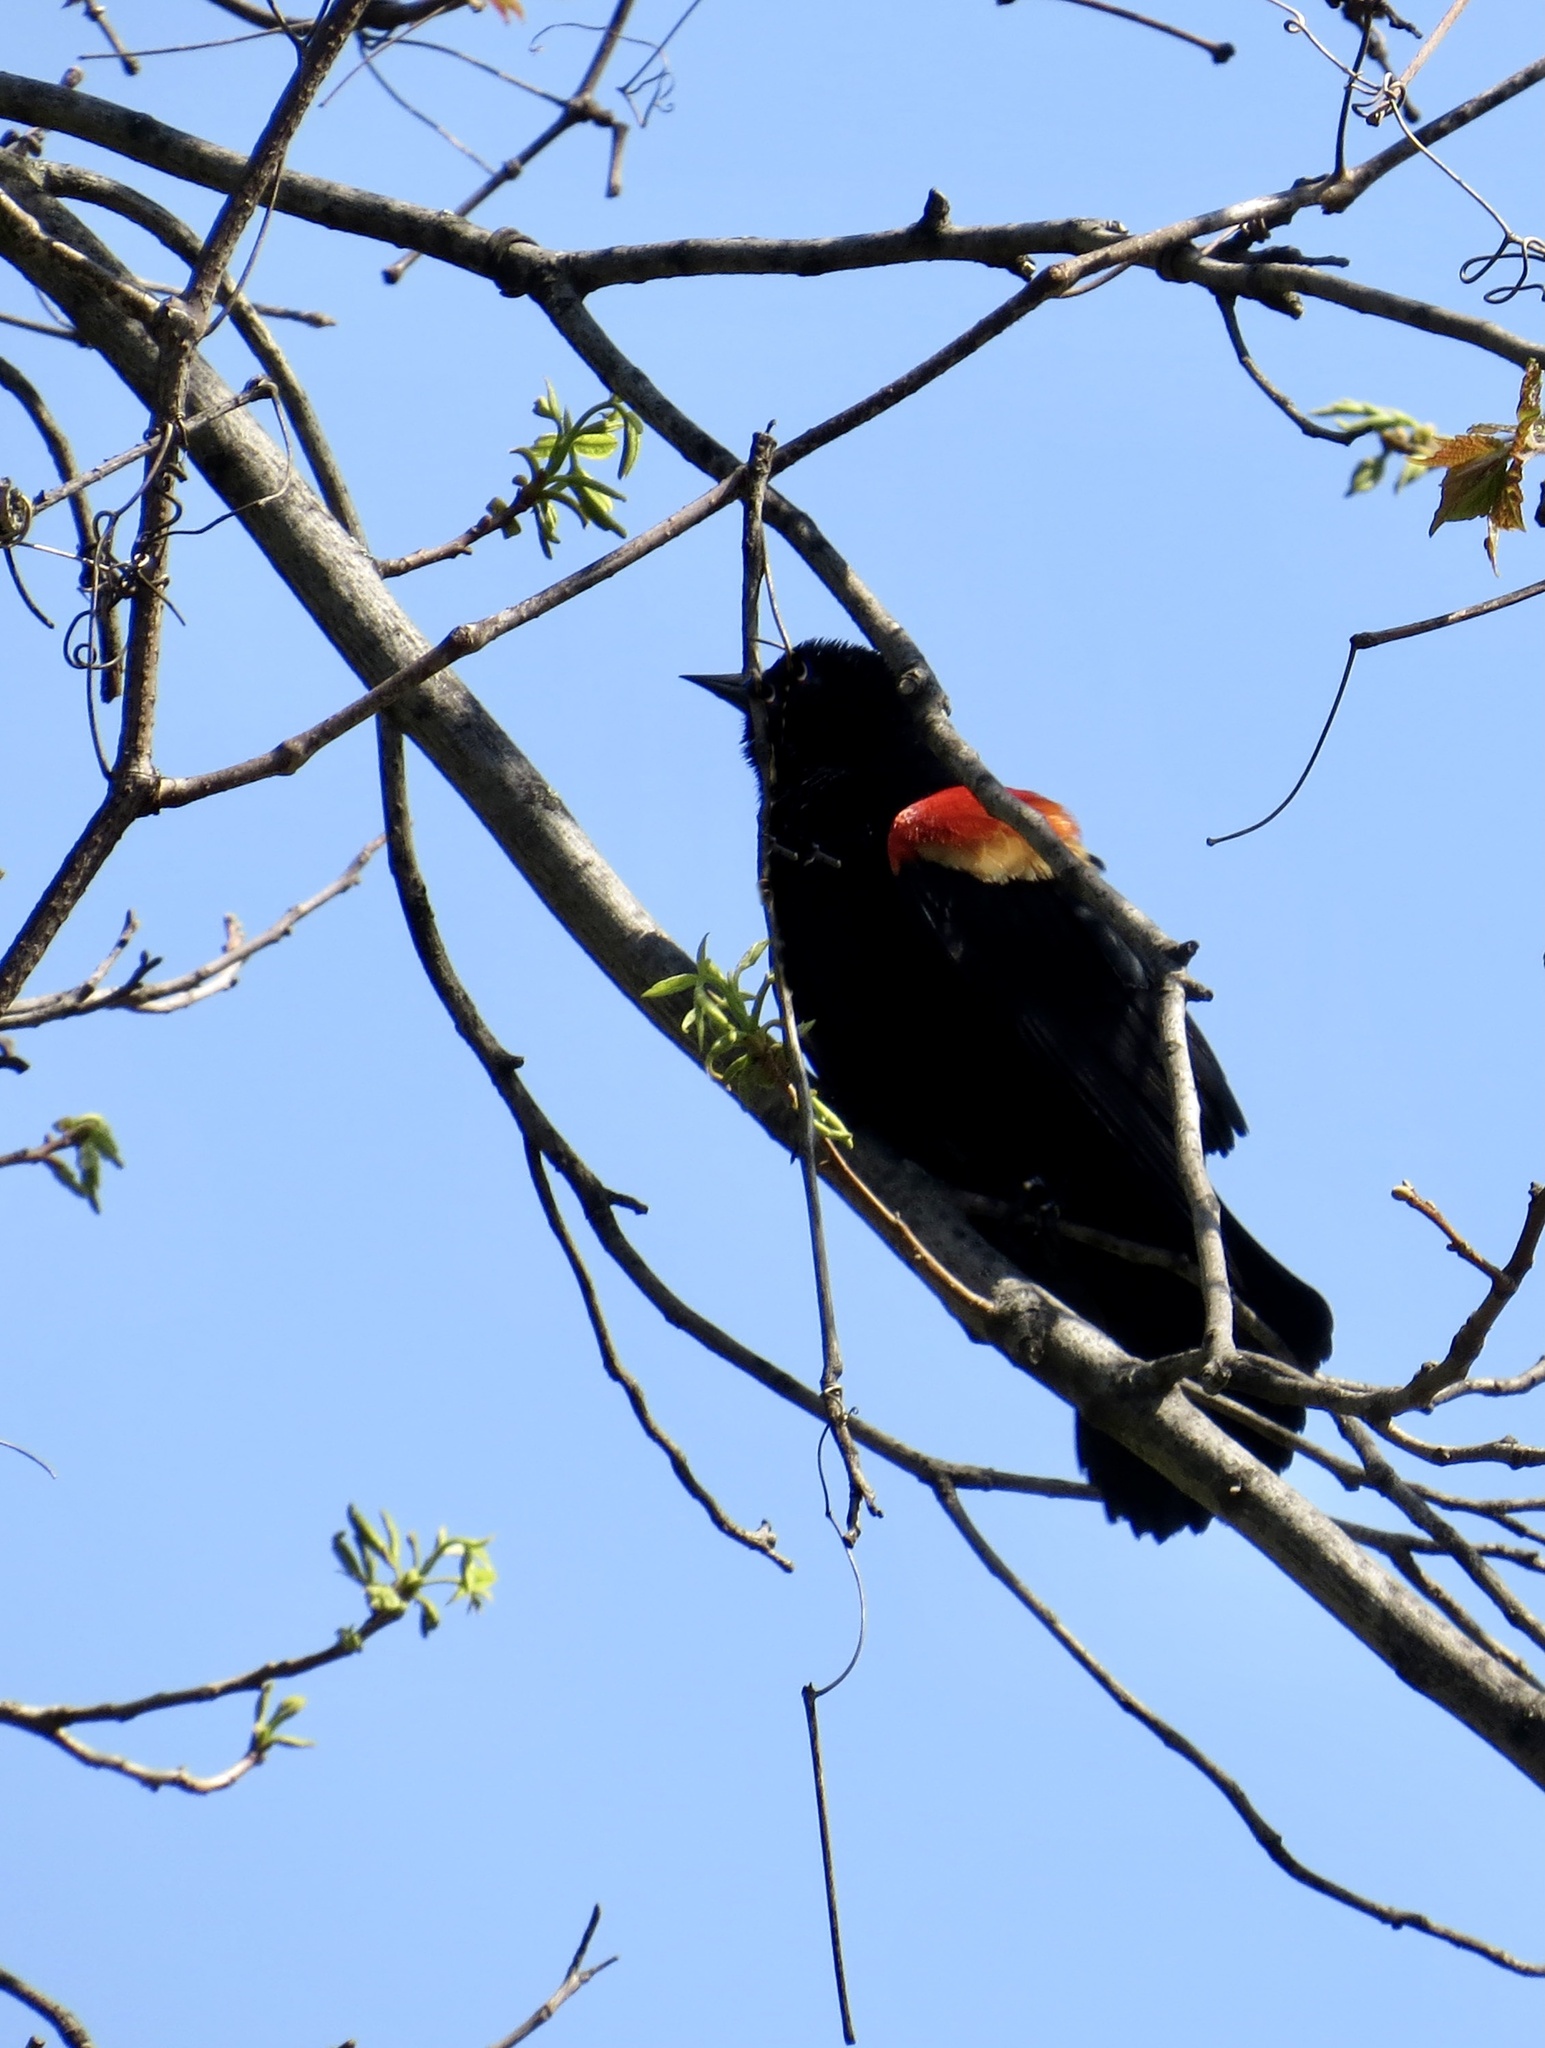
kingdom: Animalia
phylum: Chordata
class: Aves
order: Passeriformes
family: Icteridae
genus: Agelaius
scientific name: Agelaius phoeniceus
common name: Red-winged blackbird
